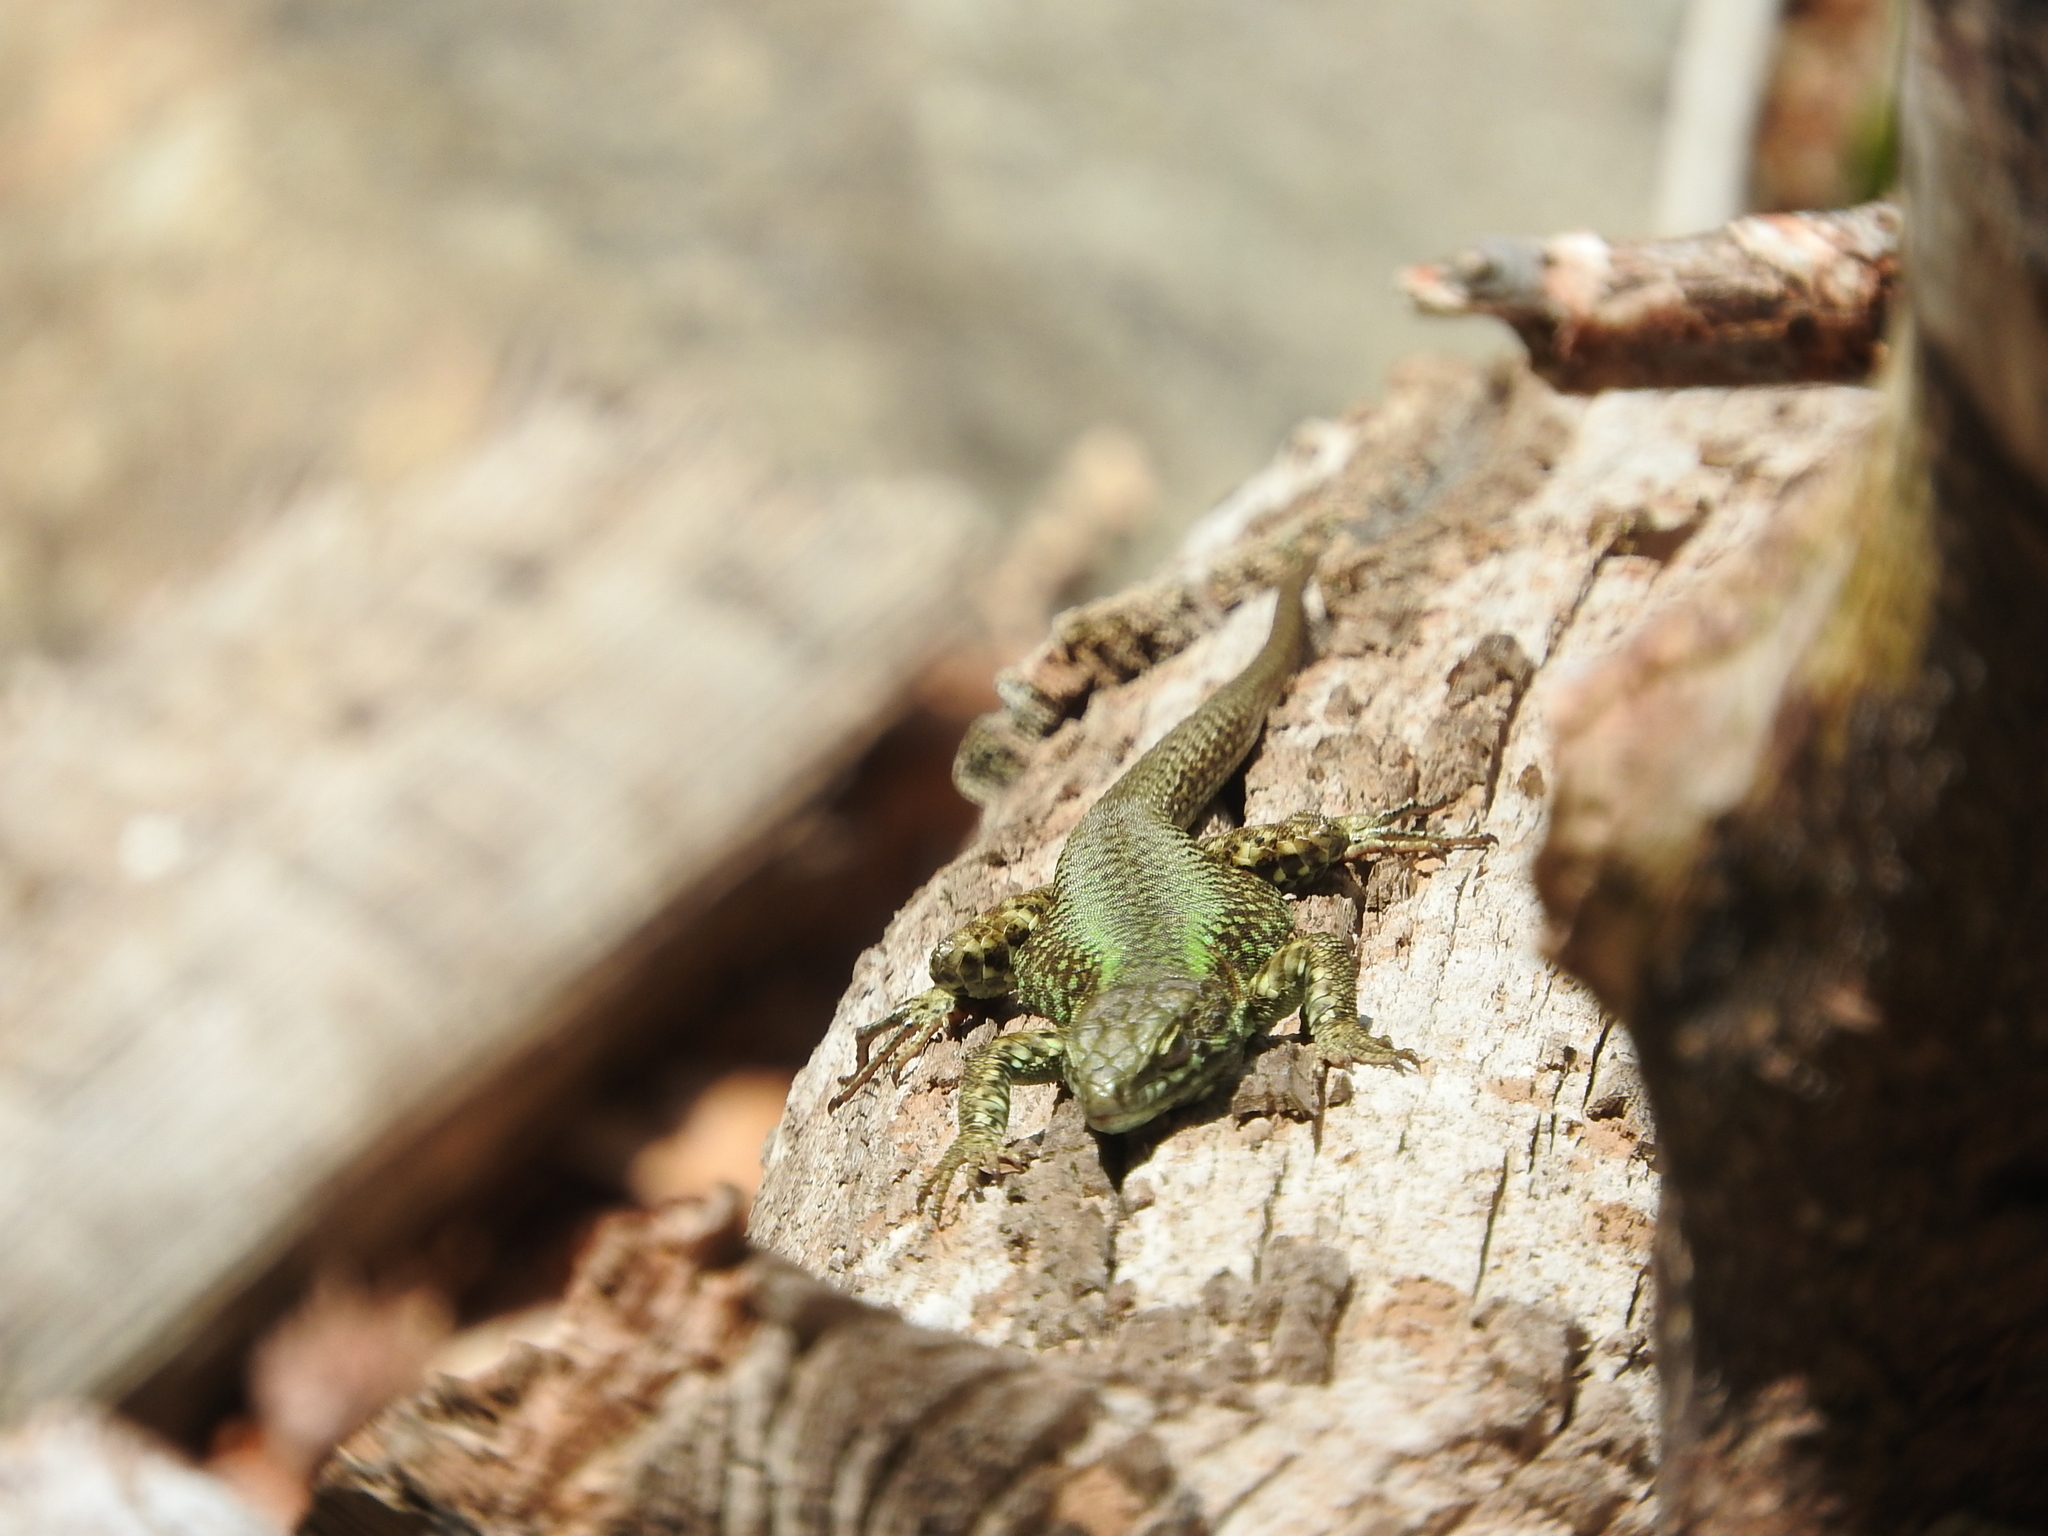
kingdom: Animalia
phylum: Chordata
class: Squamata
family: Lacertidae
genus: Podarcis
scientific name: Podarcis muralis
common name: Common wall lizard
